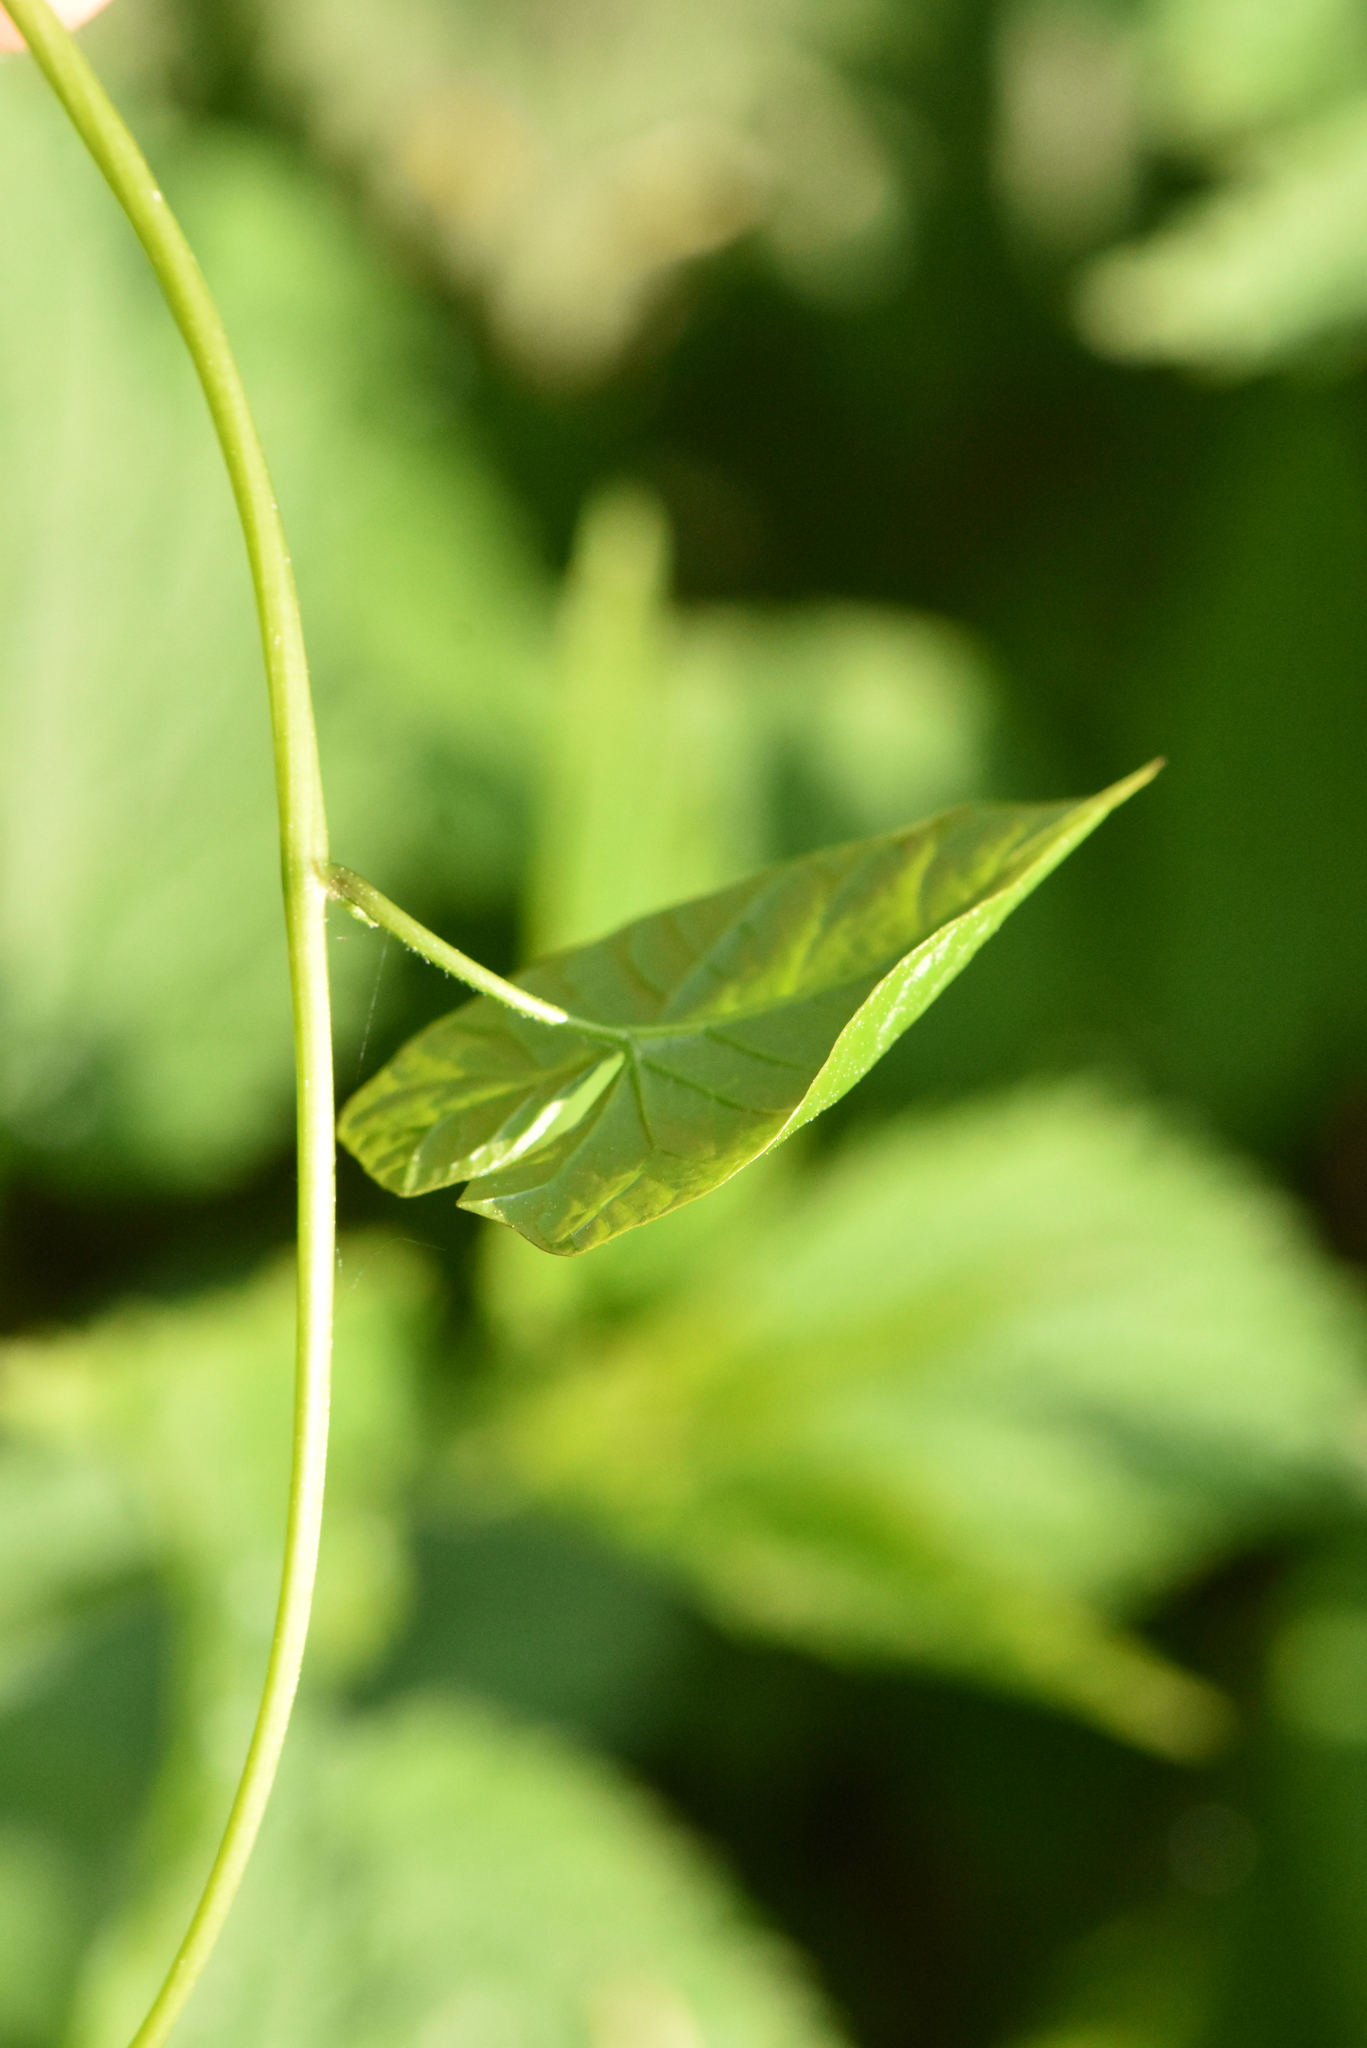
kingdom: Plantae
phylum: Tracheophyta
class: Magnoliopsida
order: Solanales
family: Convolvulaceae
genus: Calystegia
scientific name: Calystegia
